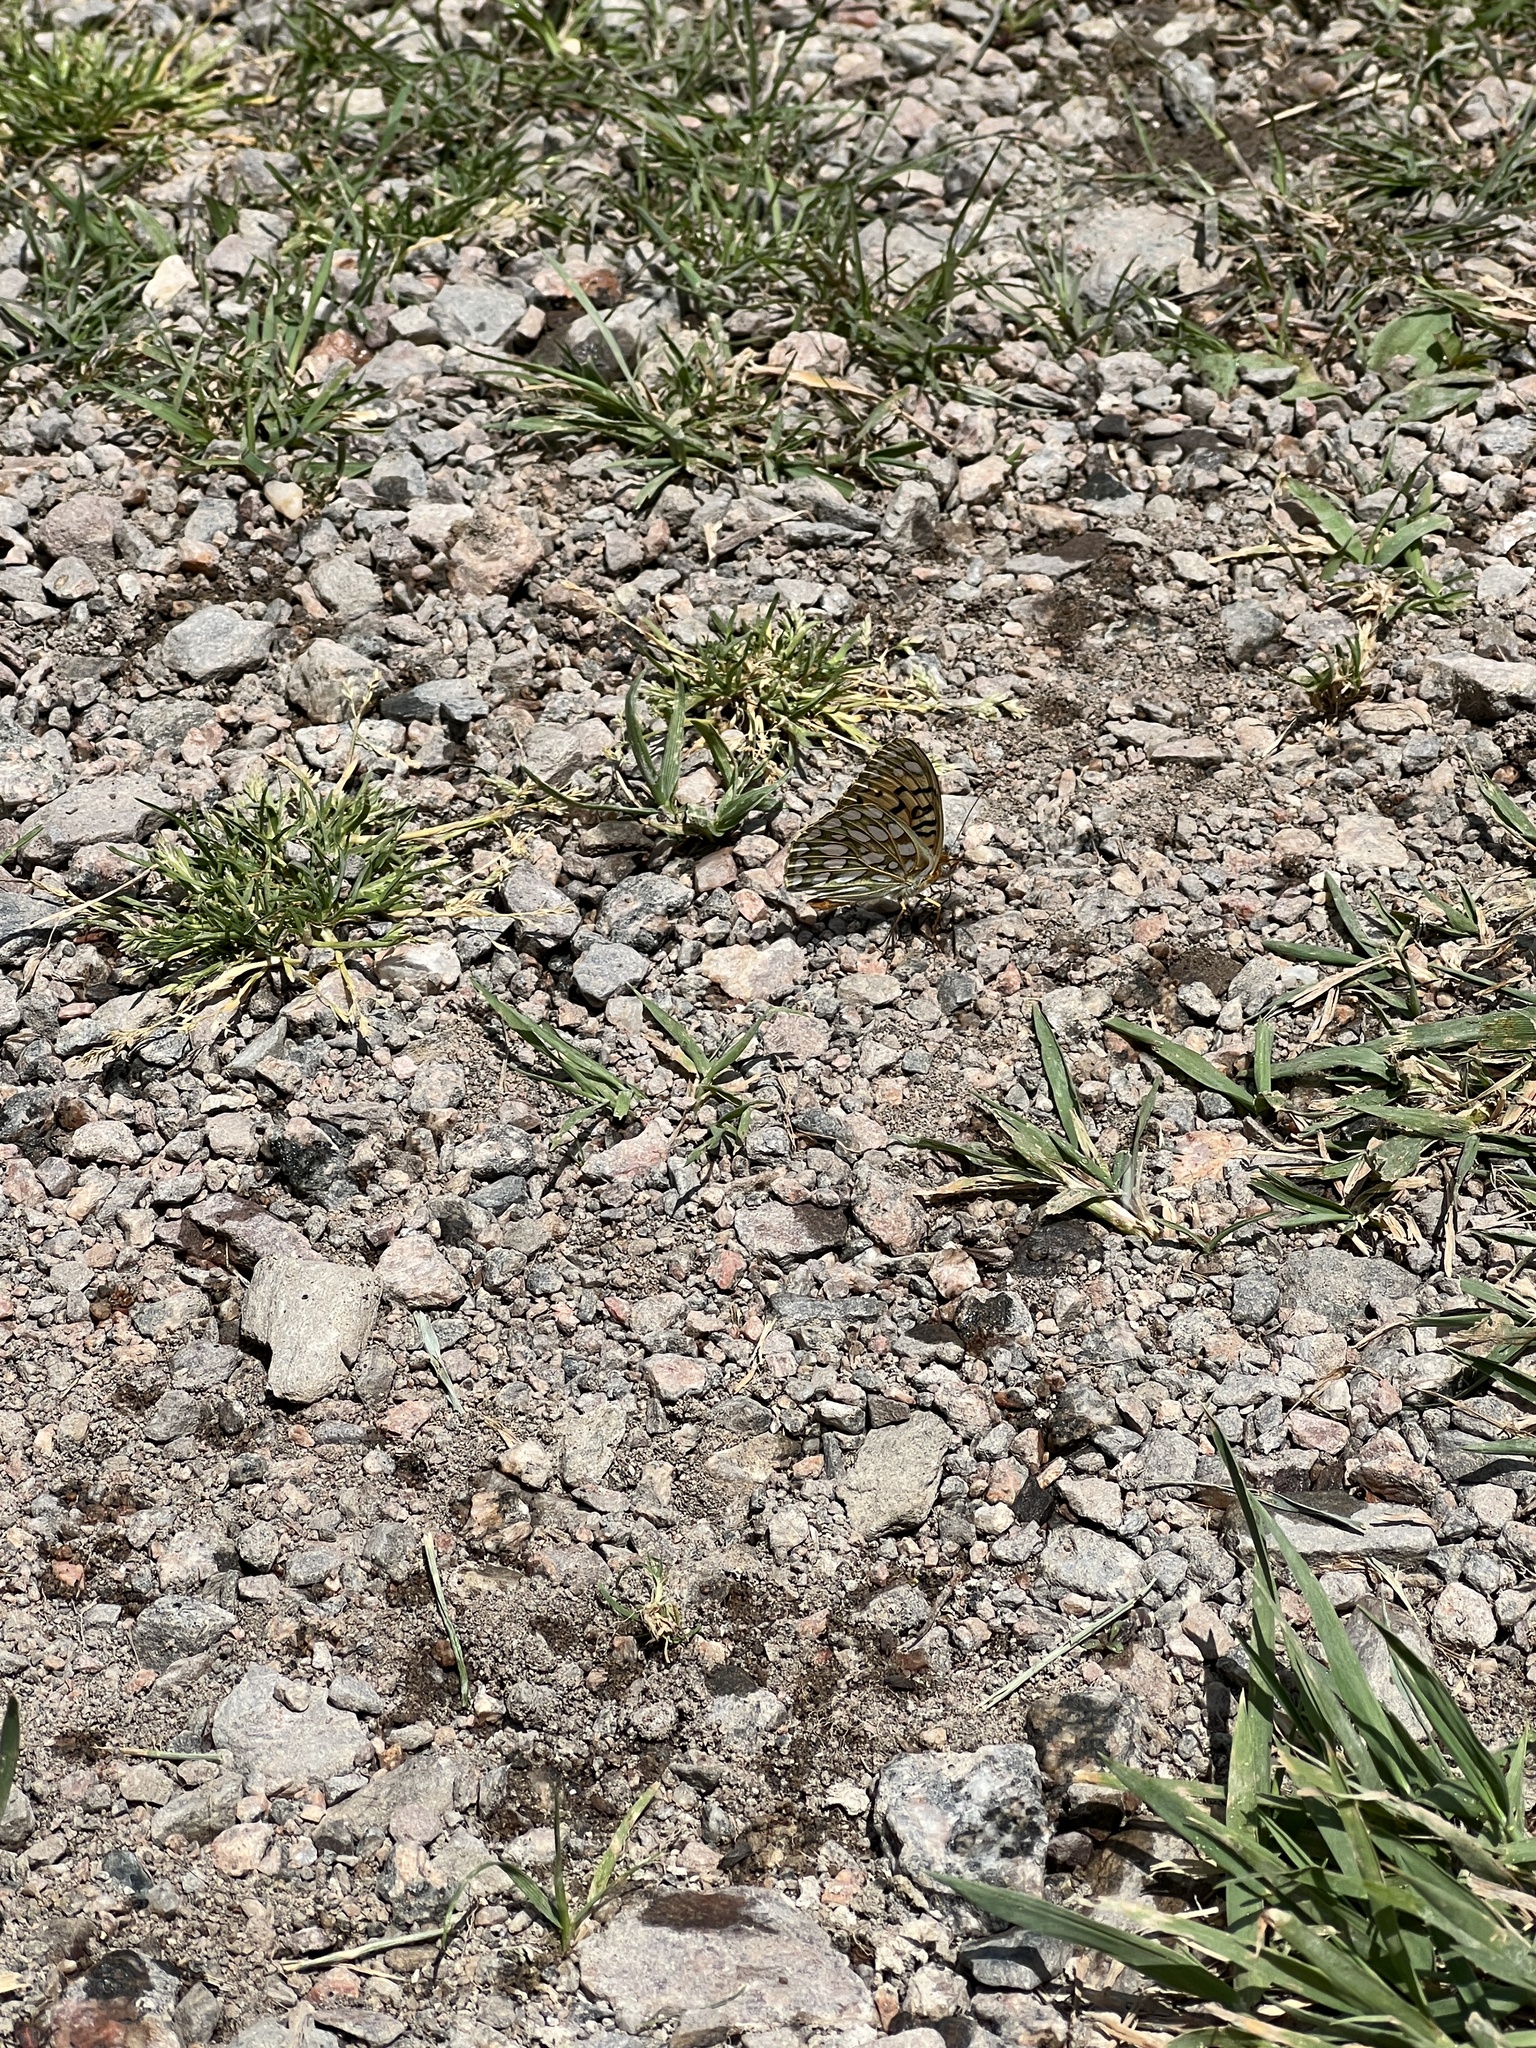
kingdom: Animalia
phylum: Arthropoda
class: Insecta
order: Lepidoptera
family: Nymphalidae
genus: Speyeria
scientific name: Speyeria edwardsii
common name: Edwards' fritillary
